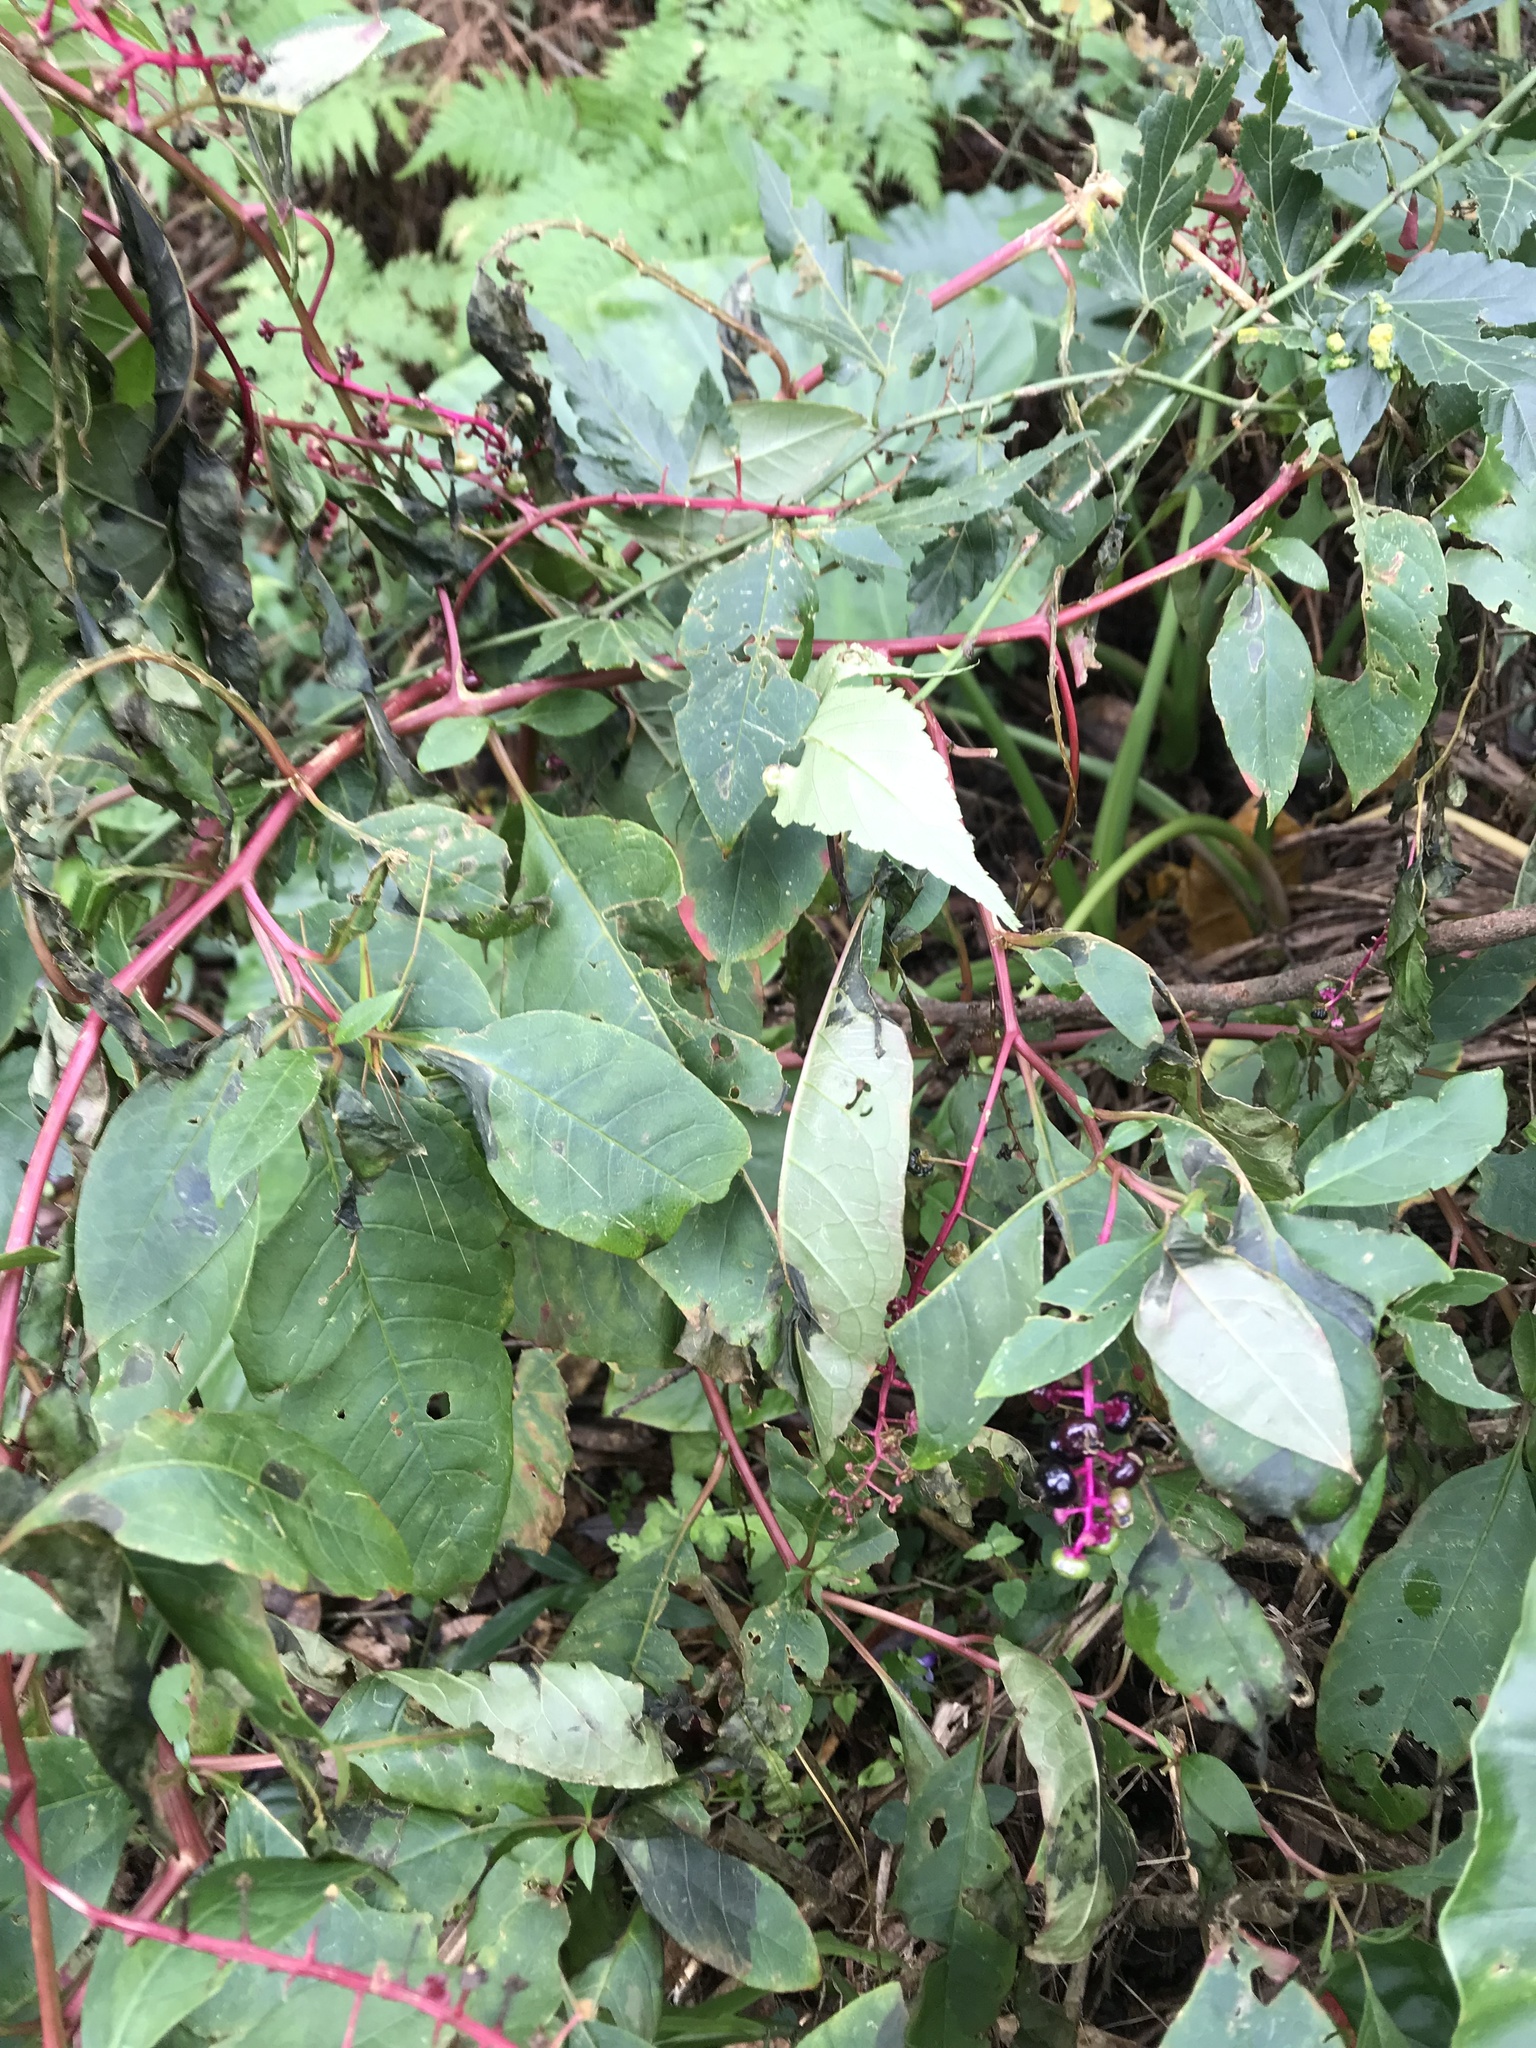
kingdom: Plantae
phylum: Tracheophyta
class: Magnoliopsida
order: Caryophyllales
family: Phytolaccaceae
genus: Phytolacca
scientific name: Phytolacca americana
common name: American pokeweed
